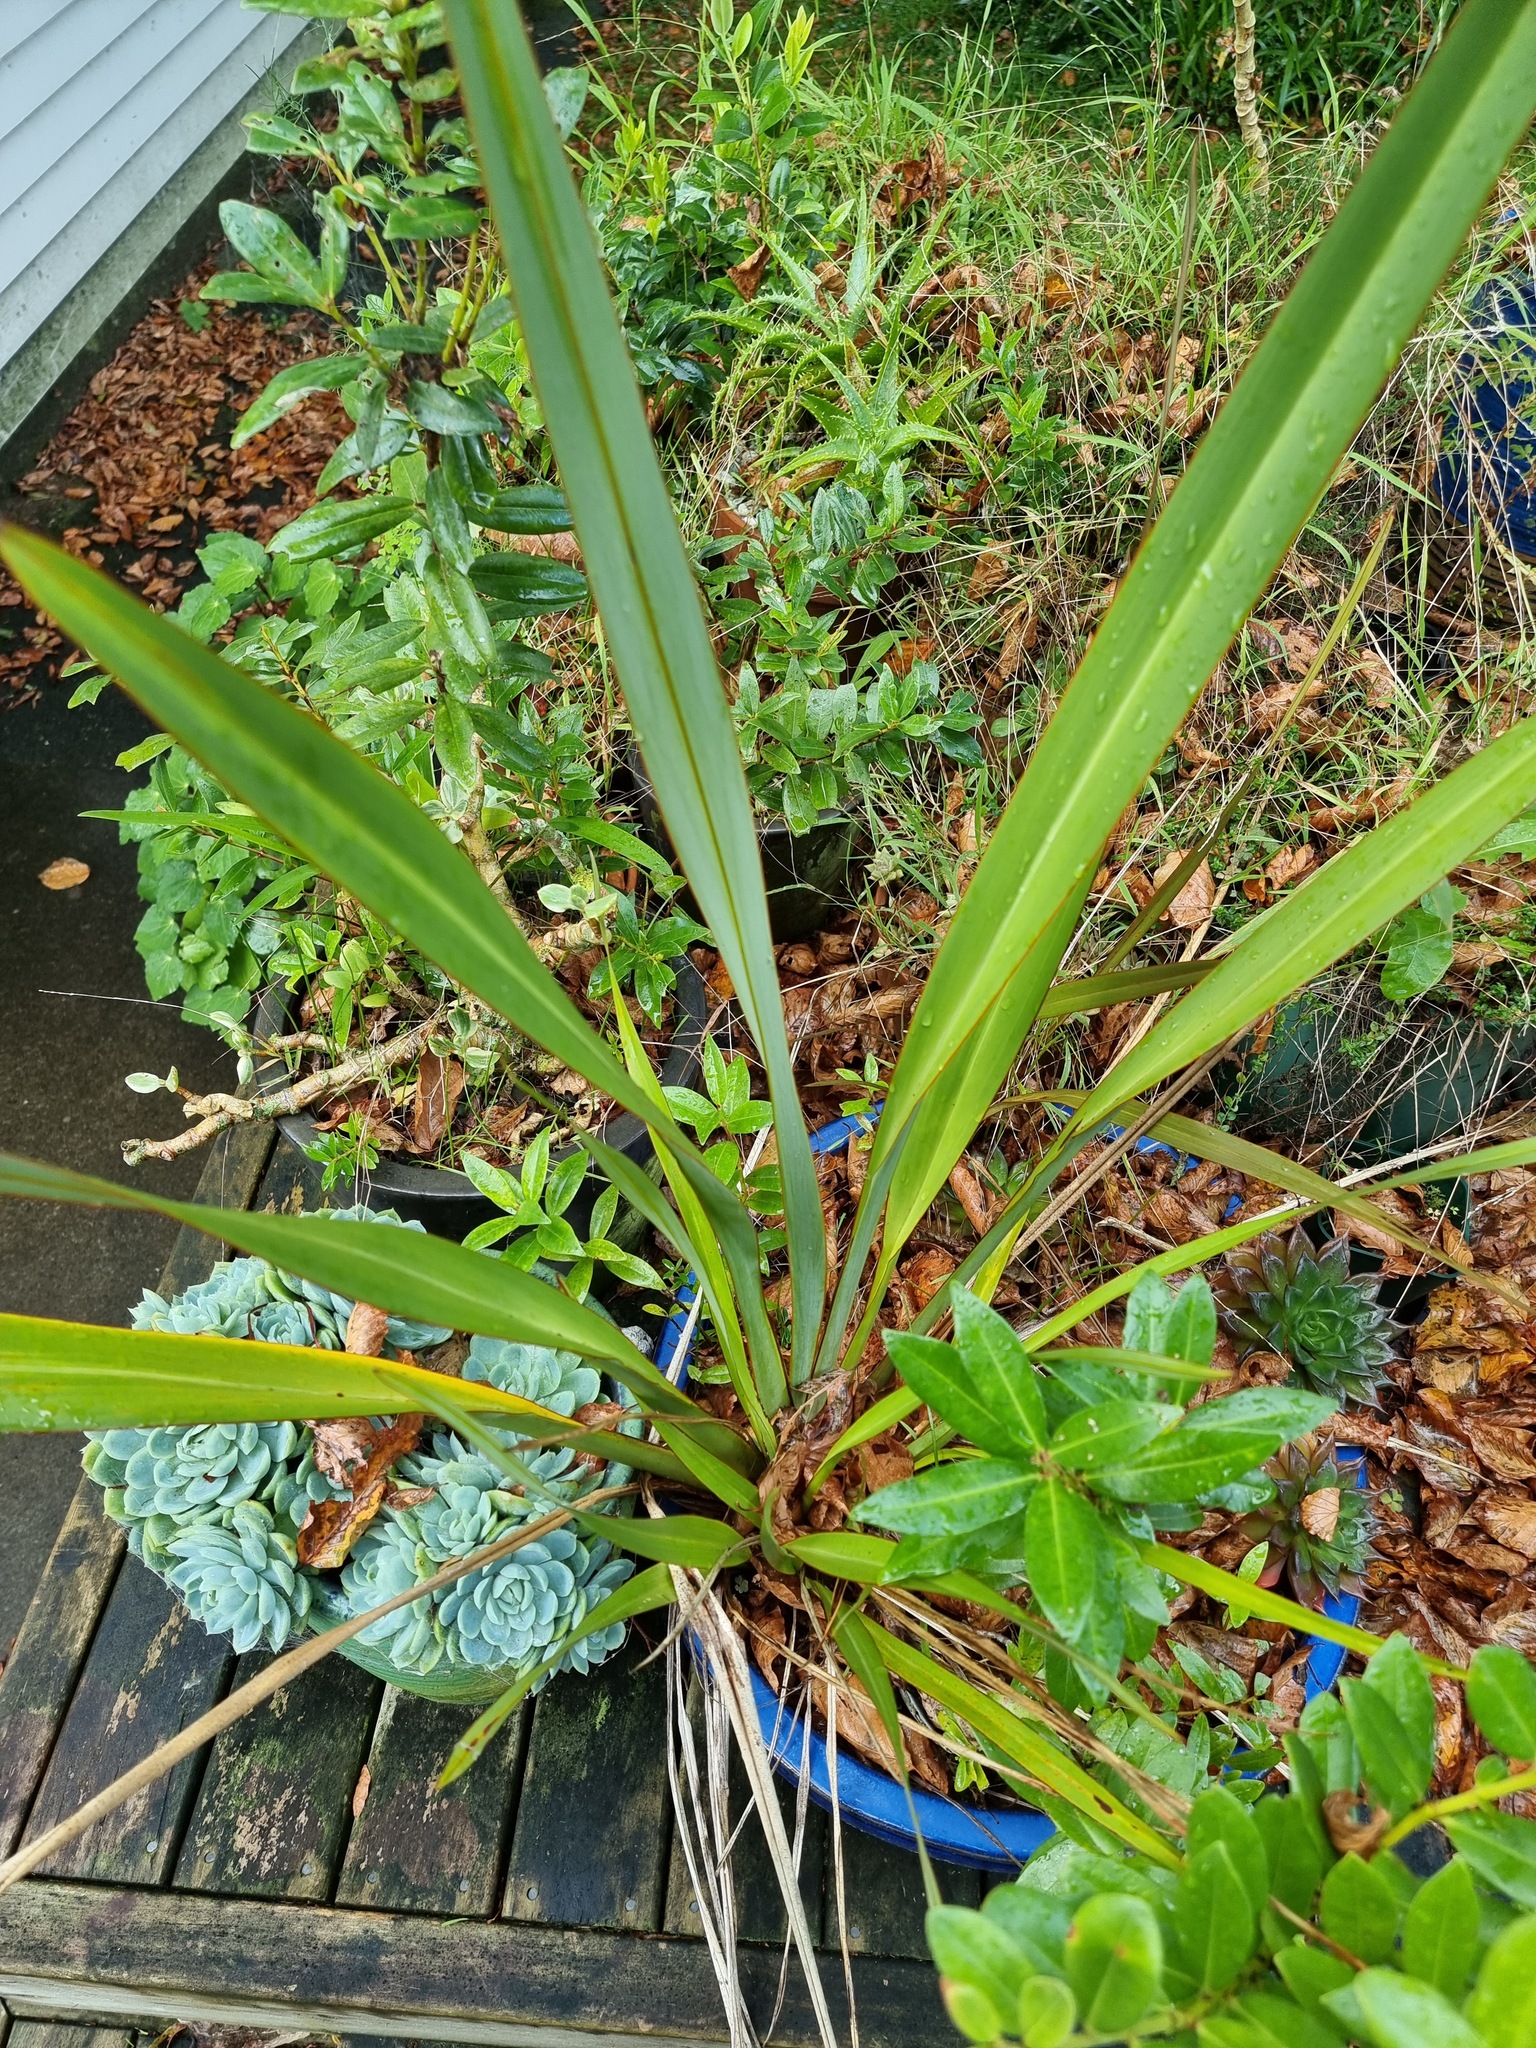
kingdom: Plantae
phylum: Tracheophyta
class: Liliopsida
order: Asparagales
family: Asphodelaceae
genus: Phormium
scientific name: Phormium tenax
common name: New zealand flax
